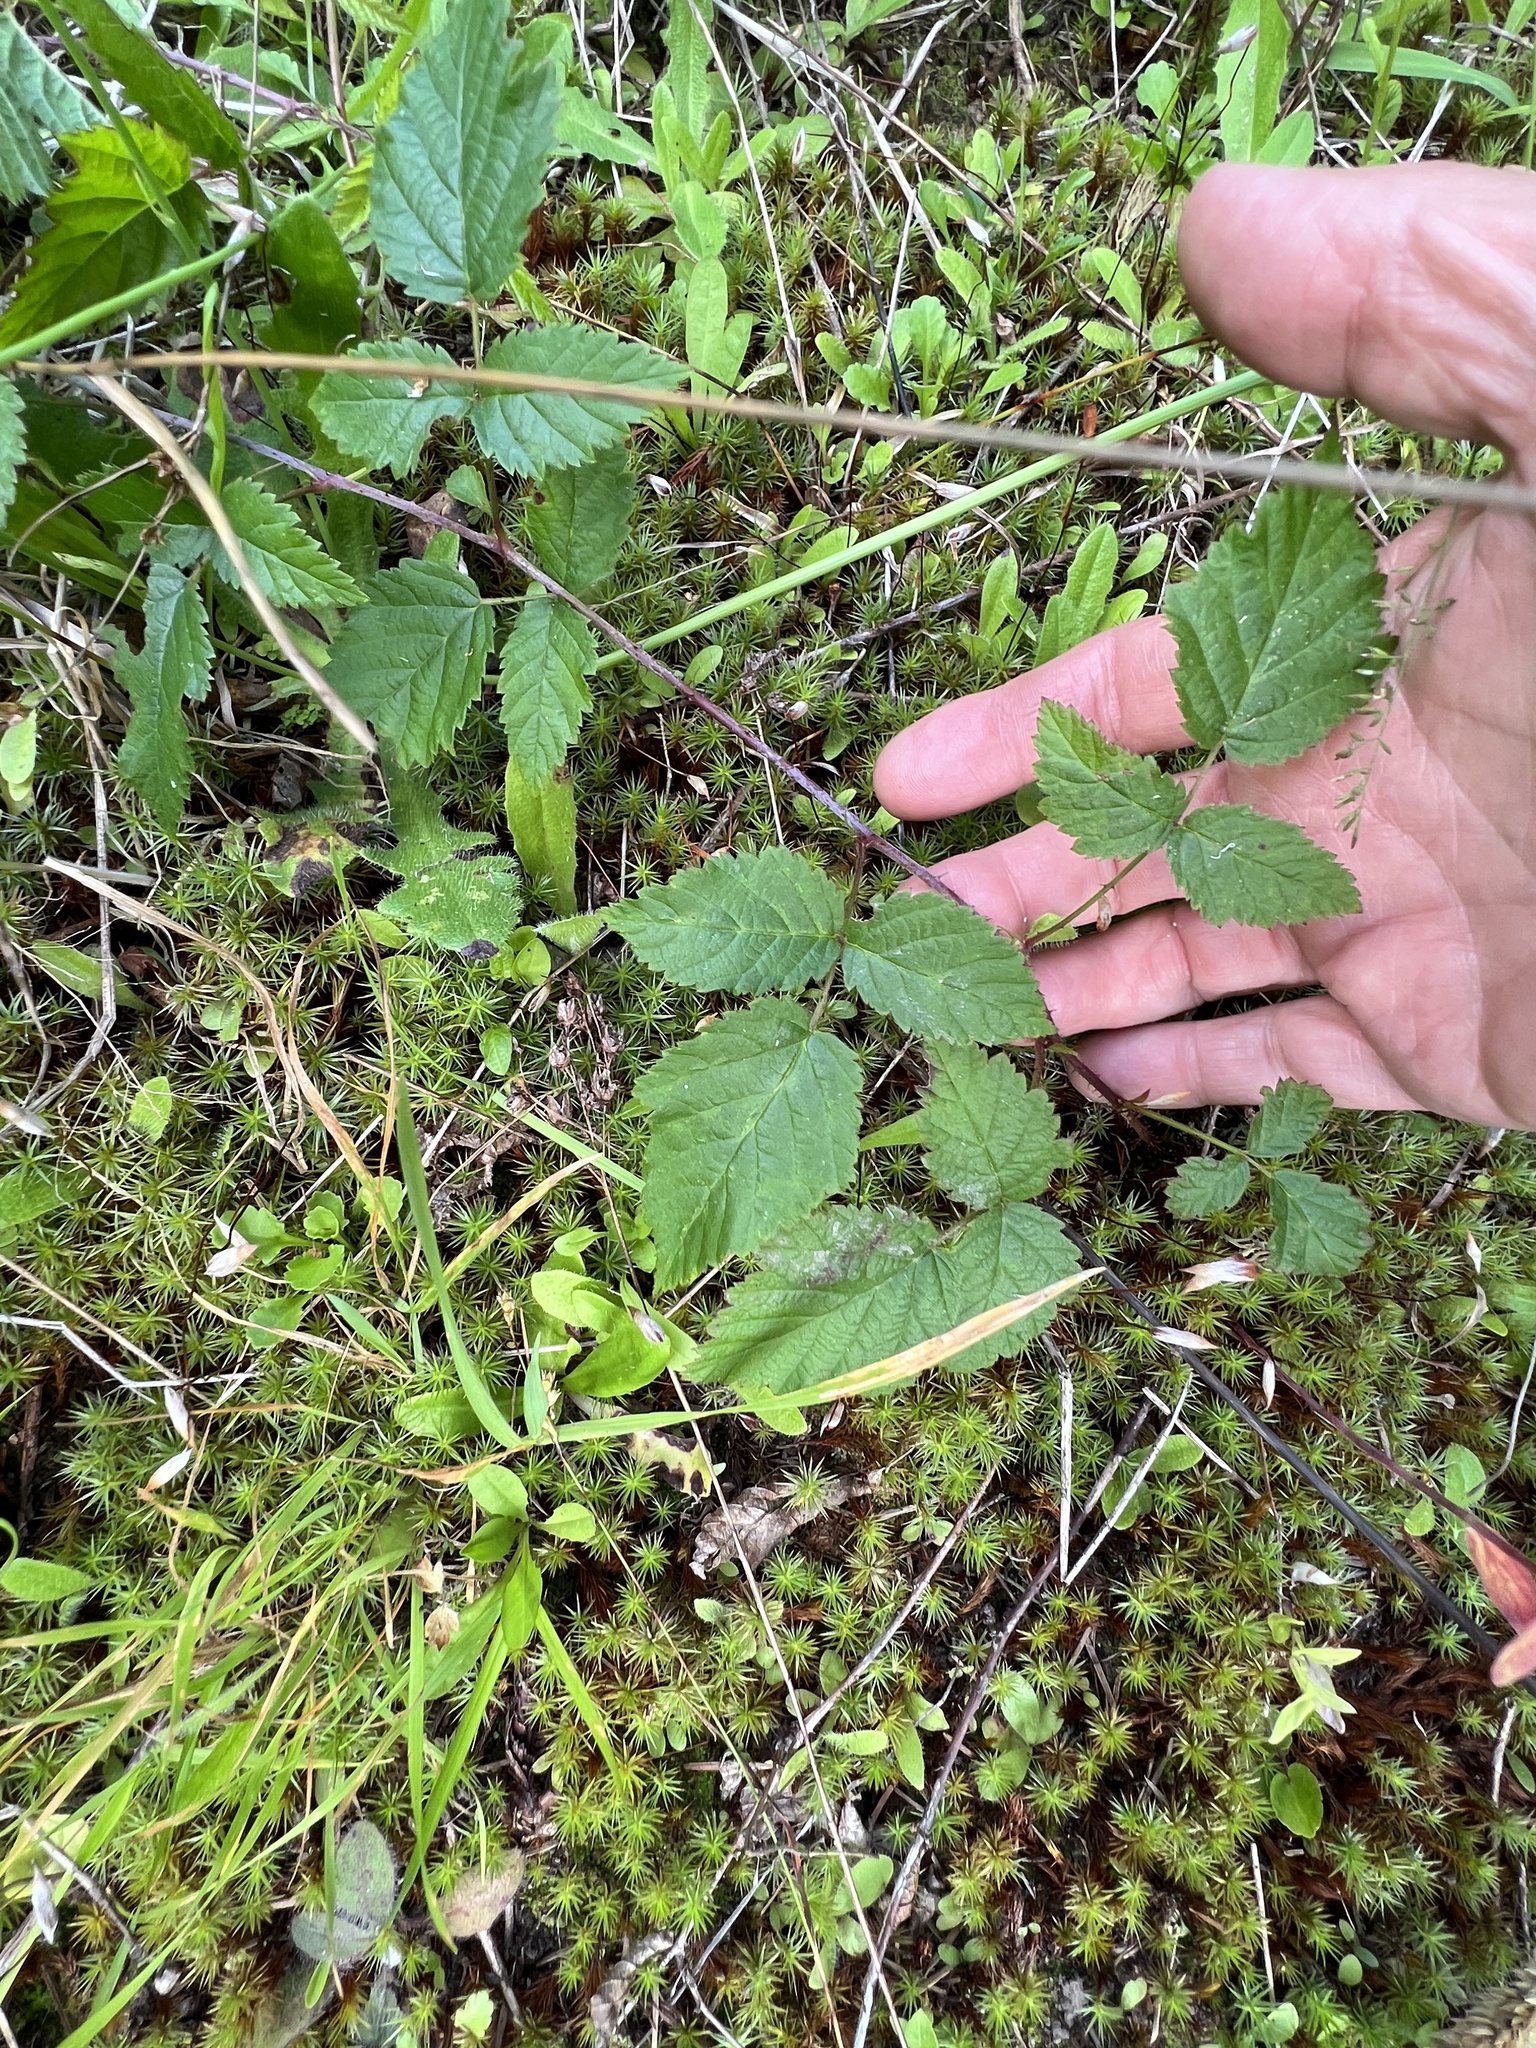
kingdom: Plantae
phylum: Tracheophyta
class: Magnoliopsida
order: Rosales
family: Rosaceae
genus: Rubus
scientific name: Rubus ursinus
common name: Pacific blackberry
